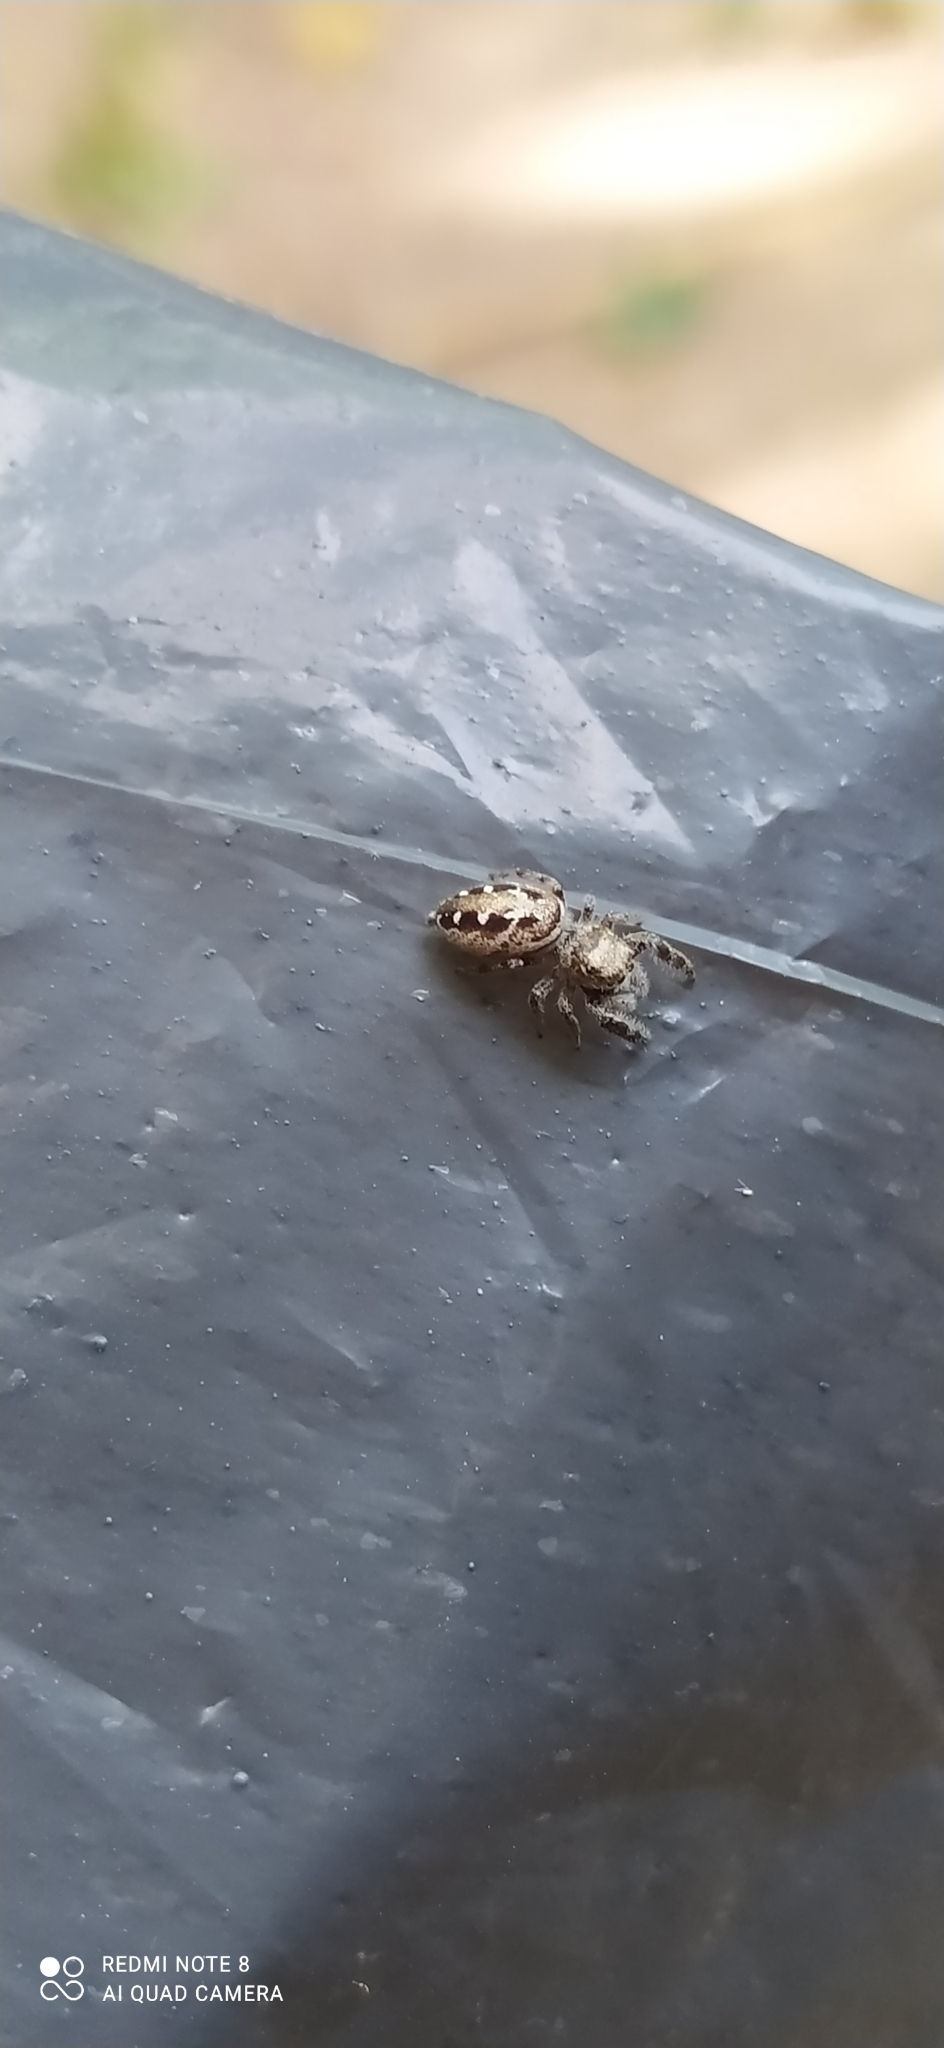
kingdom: Animalia
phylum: Arthropoda
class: Arachnida
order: Araneae
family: Salticidae
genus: Dendryphantes
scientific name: Dendryphantes mordax
